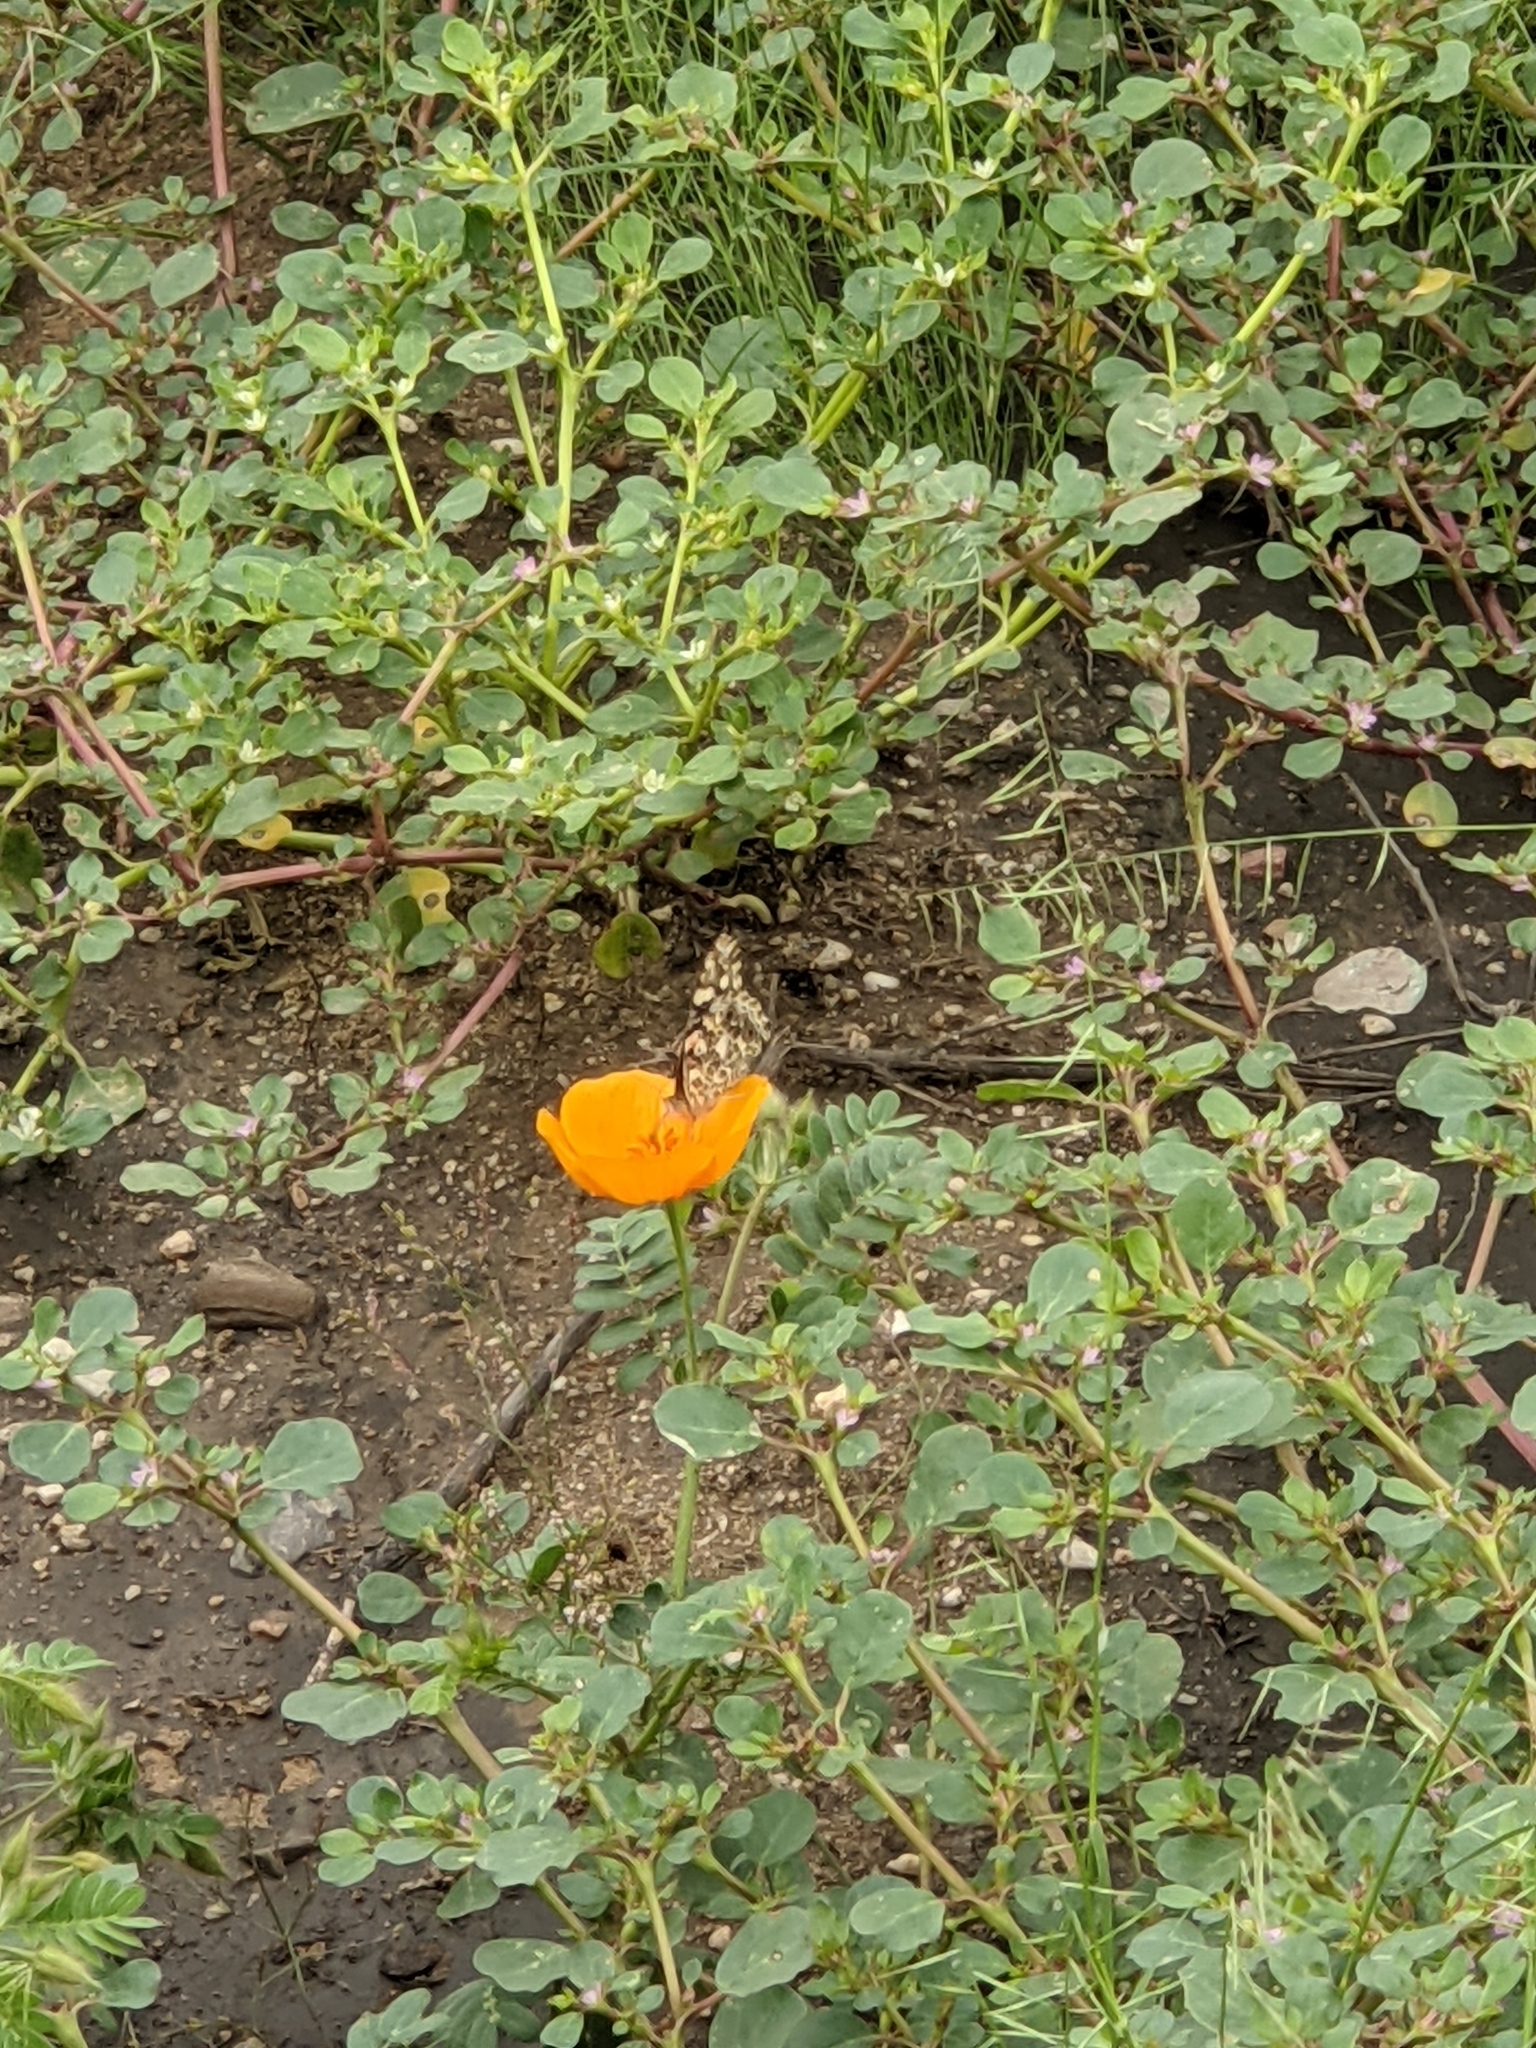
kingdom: Animalia
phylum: Arthropoda
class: Insecta
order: Lepidoptera
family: Nymphalidae
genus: Vanessa
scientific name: Vanessa cardui
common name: Painted lady
